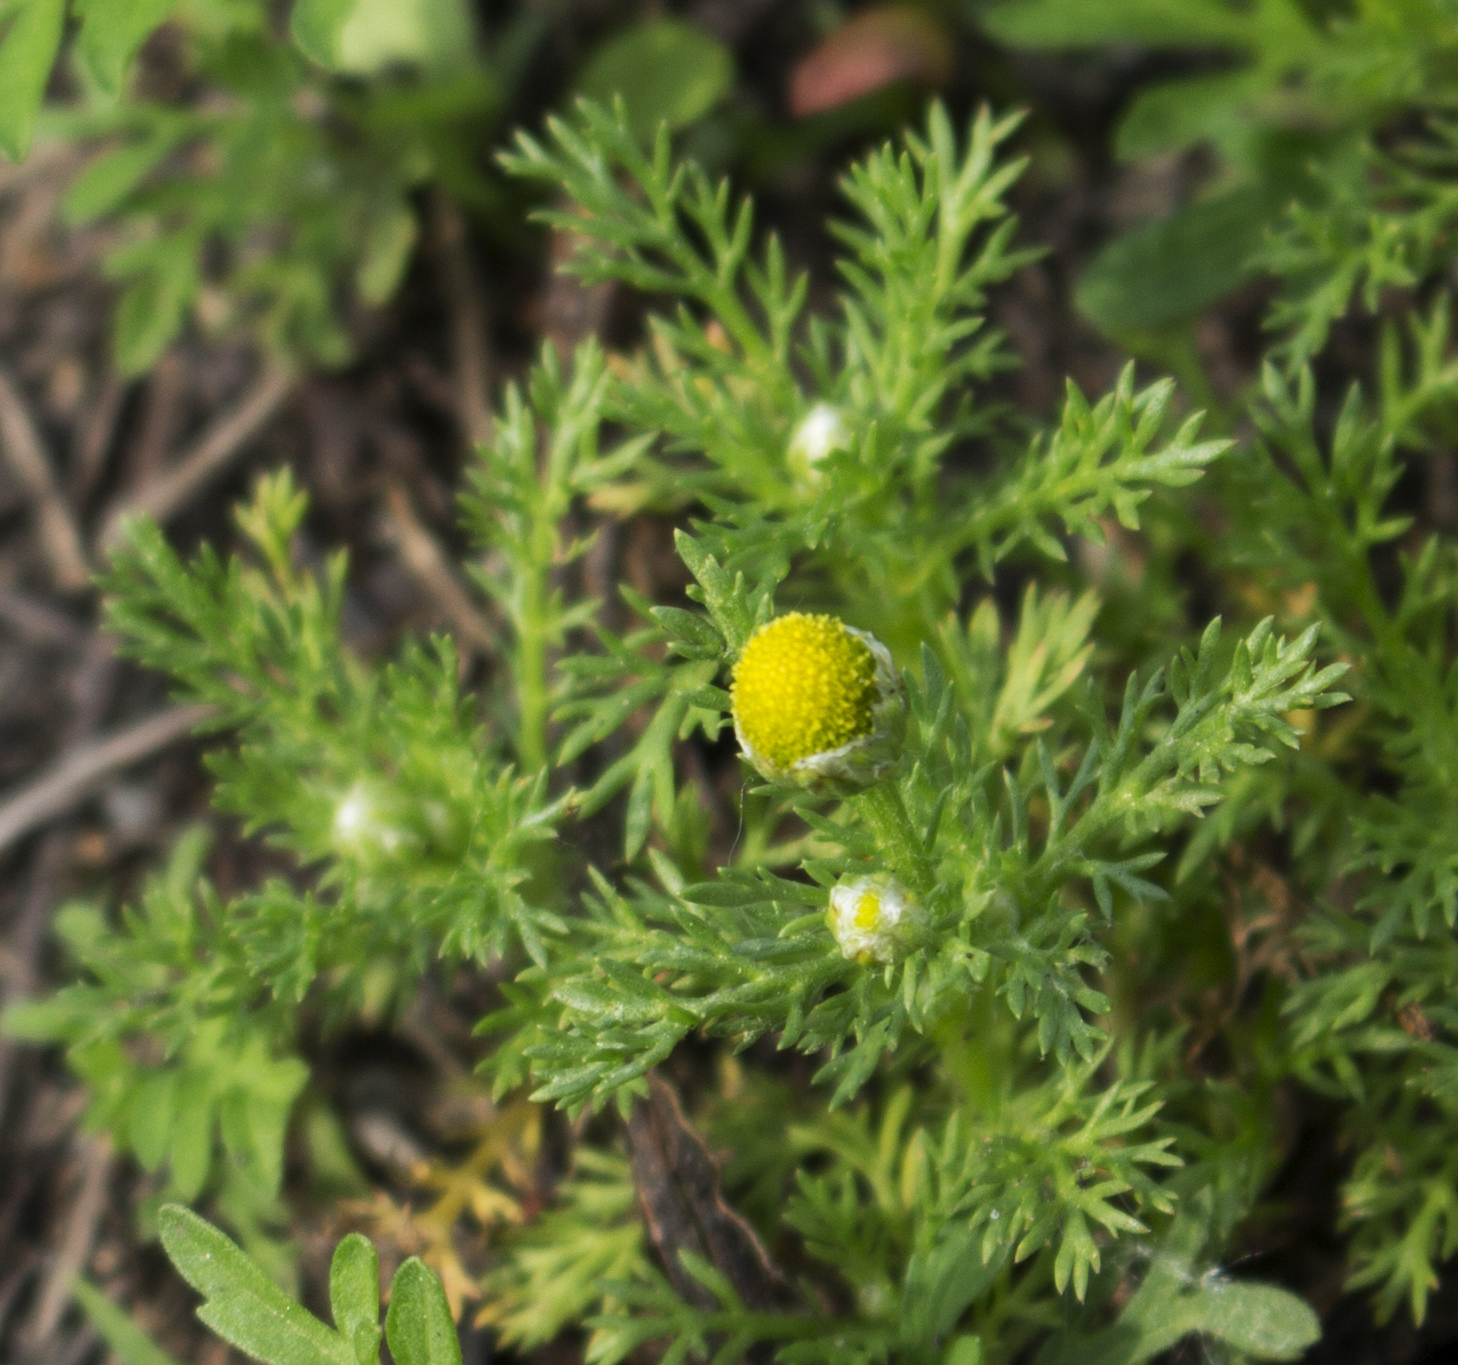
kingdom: Plantae
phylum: Tracheophyta
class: Magnoliopsida
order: Asterales
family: Asteraceae
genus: Matricaria
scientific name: Matricaria discoidea
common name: Disc mayweed
